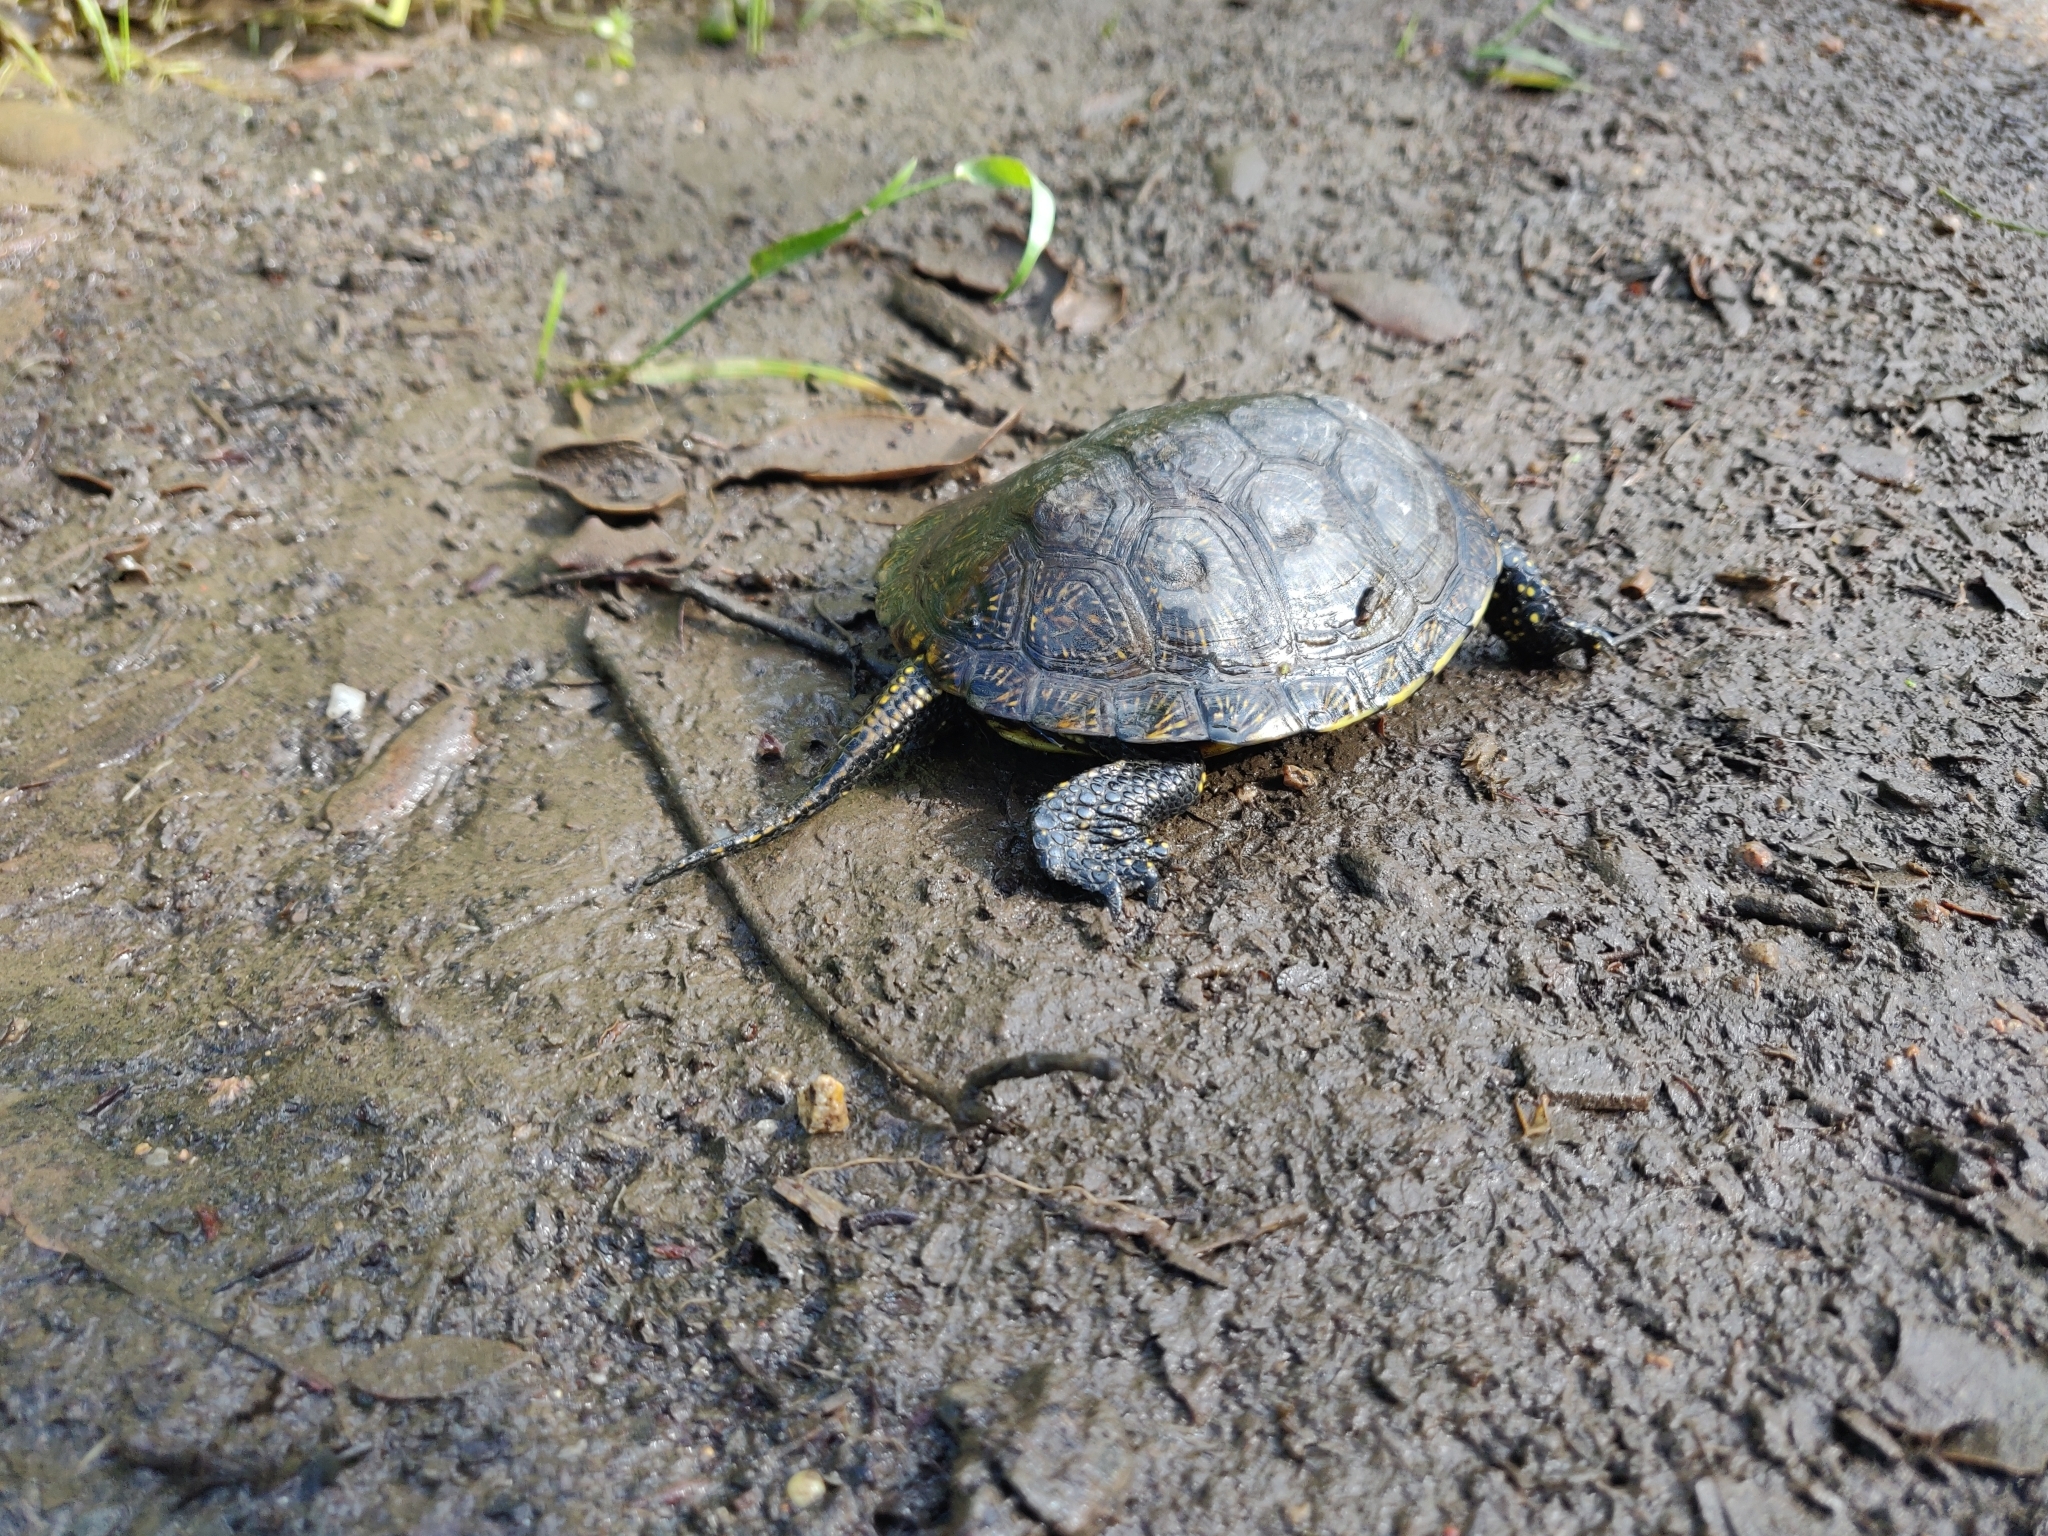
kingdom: Animalia
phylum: Chordata
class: Testudines
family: Emydidae
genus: Emys
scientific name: Emys orbicularis
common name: European pond turtle
